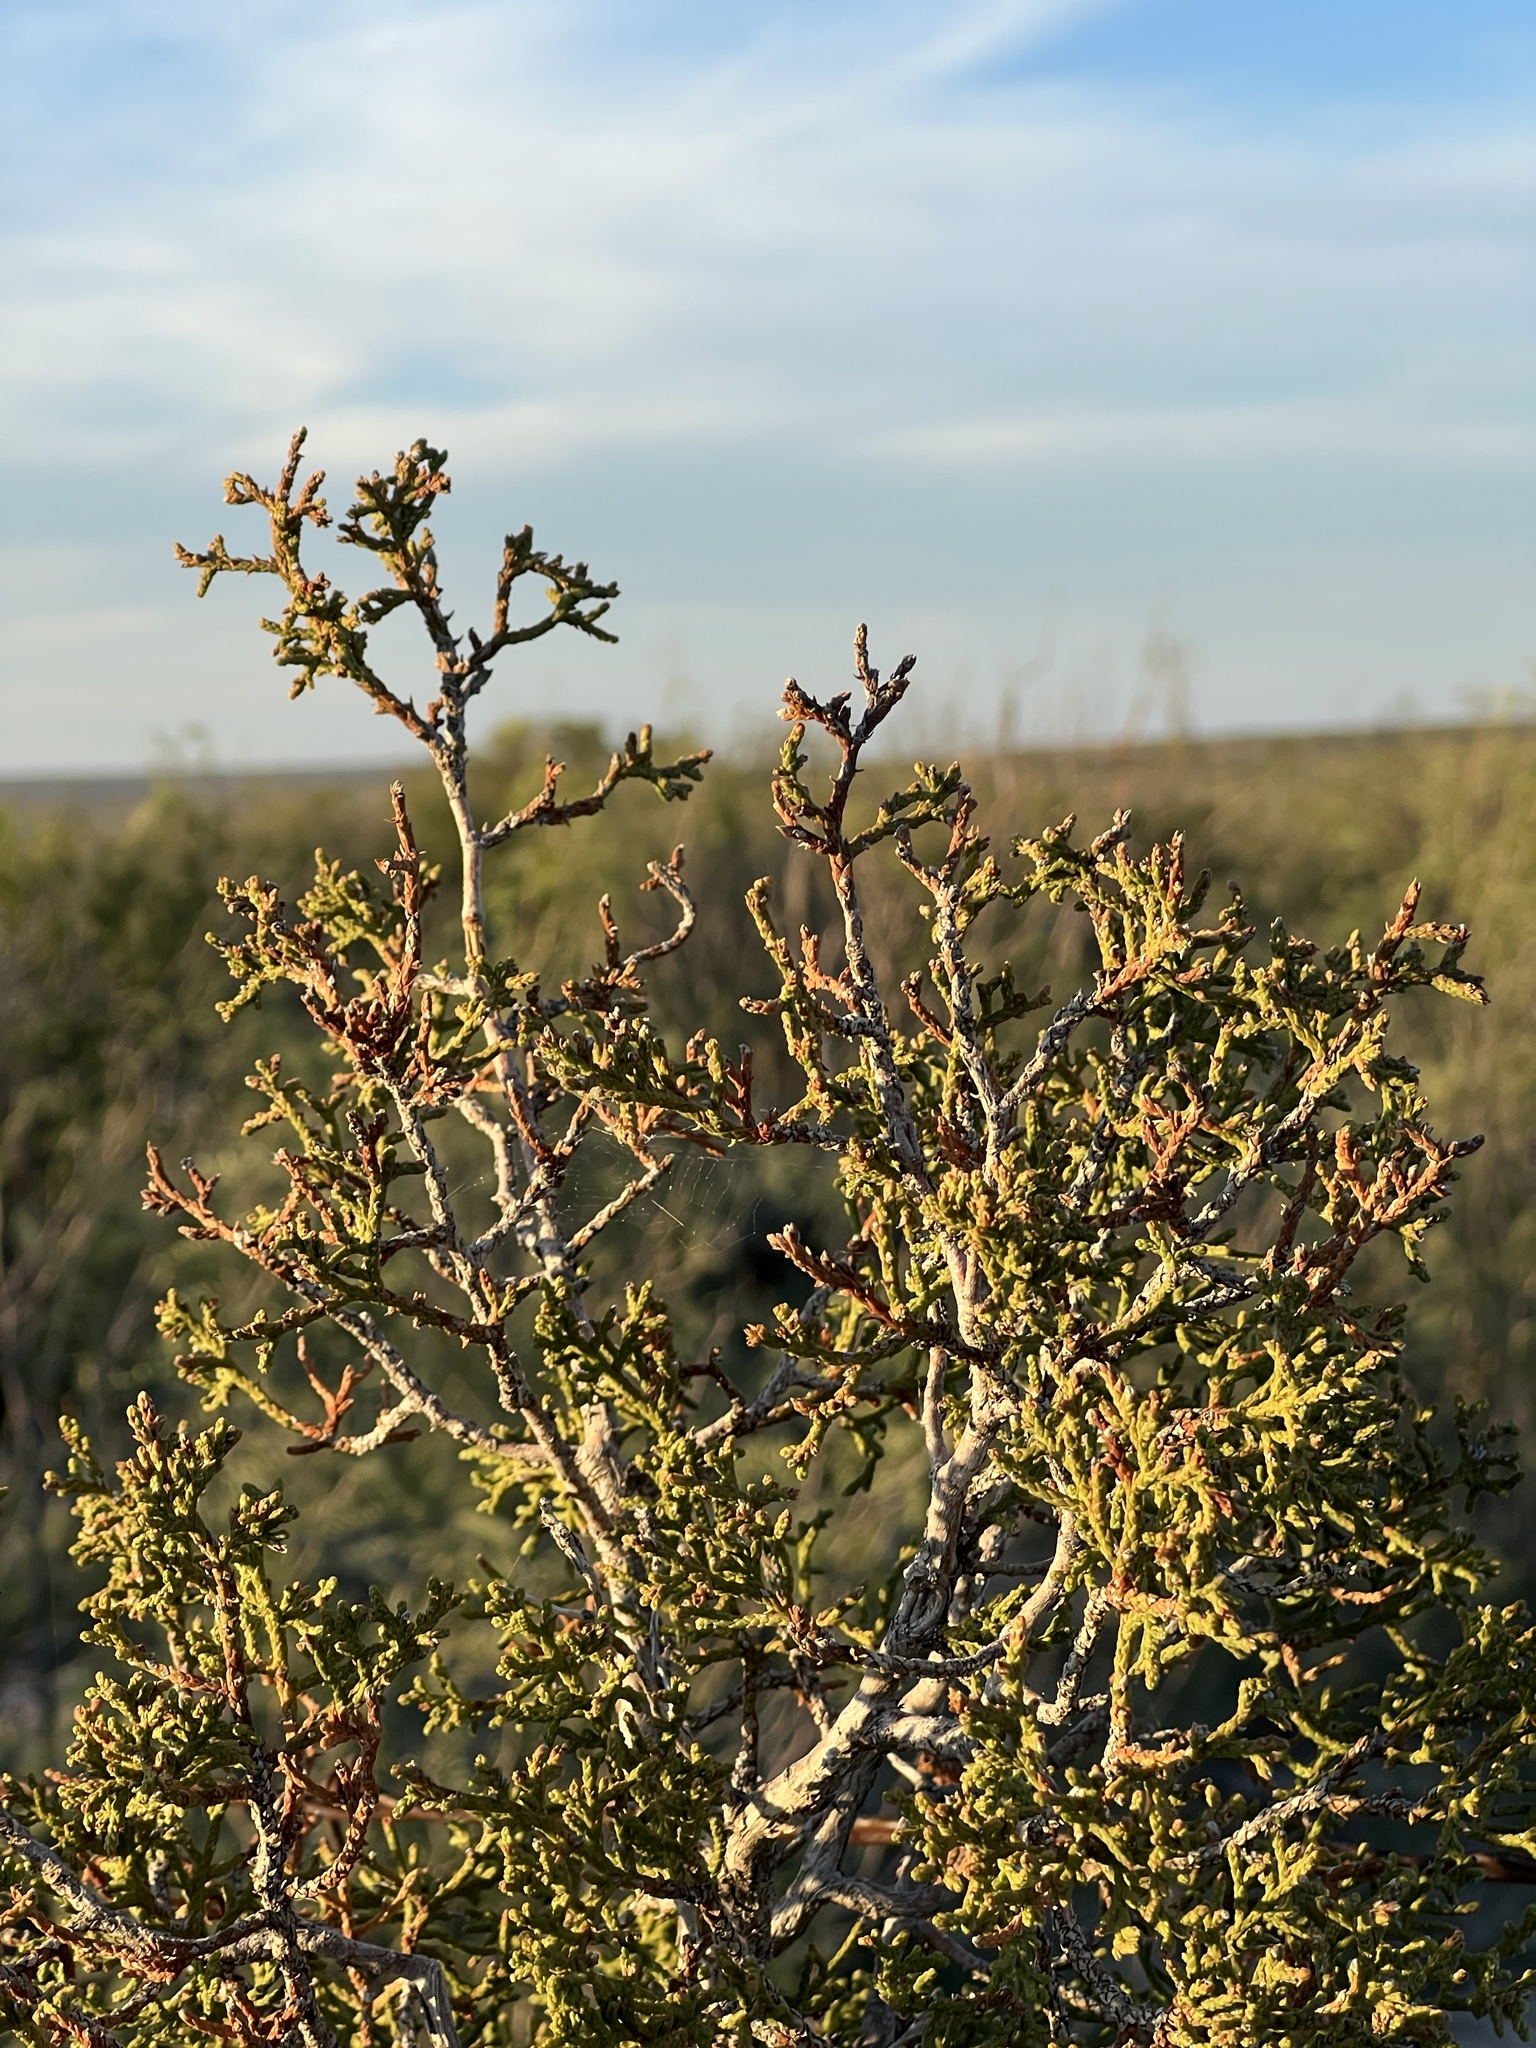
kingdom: Plantae
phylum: Tracheophyta
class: Pinopsida
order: Pinales
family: Cupressaceae
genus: Juniperus
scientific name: Juniperus pinchotii
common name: Pinchot juniper
